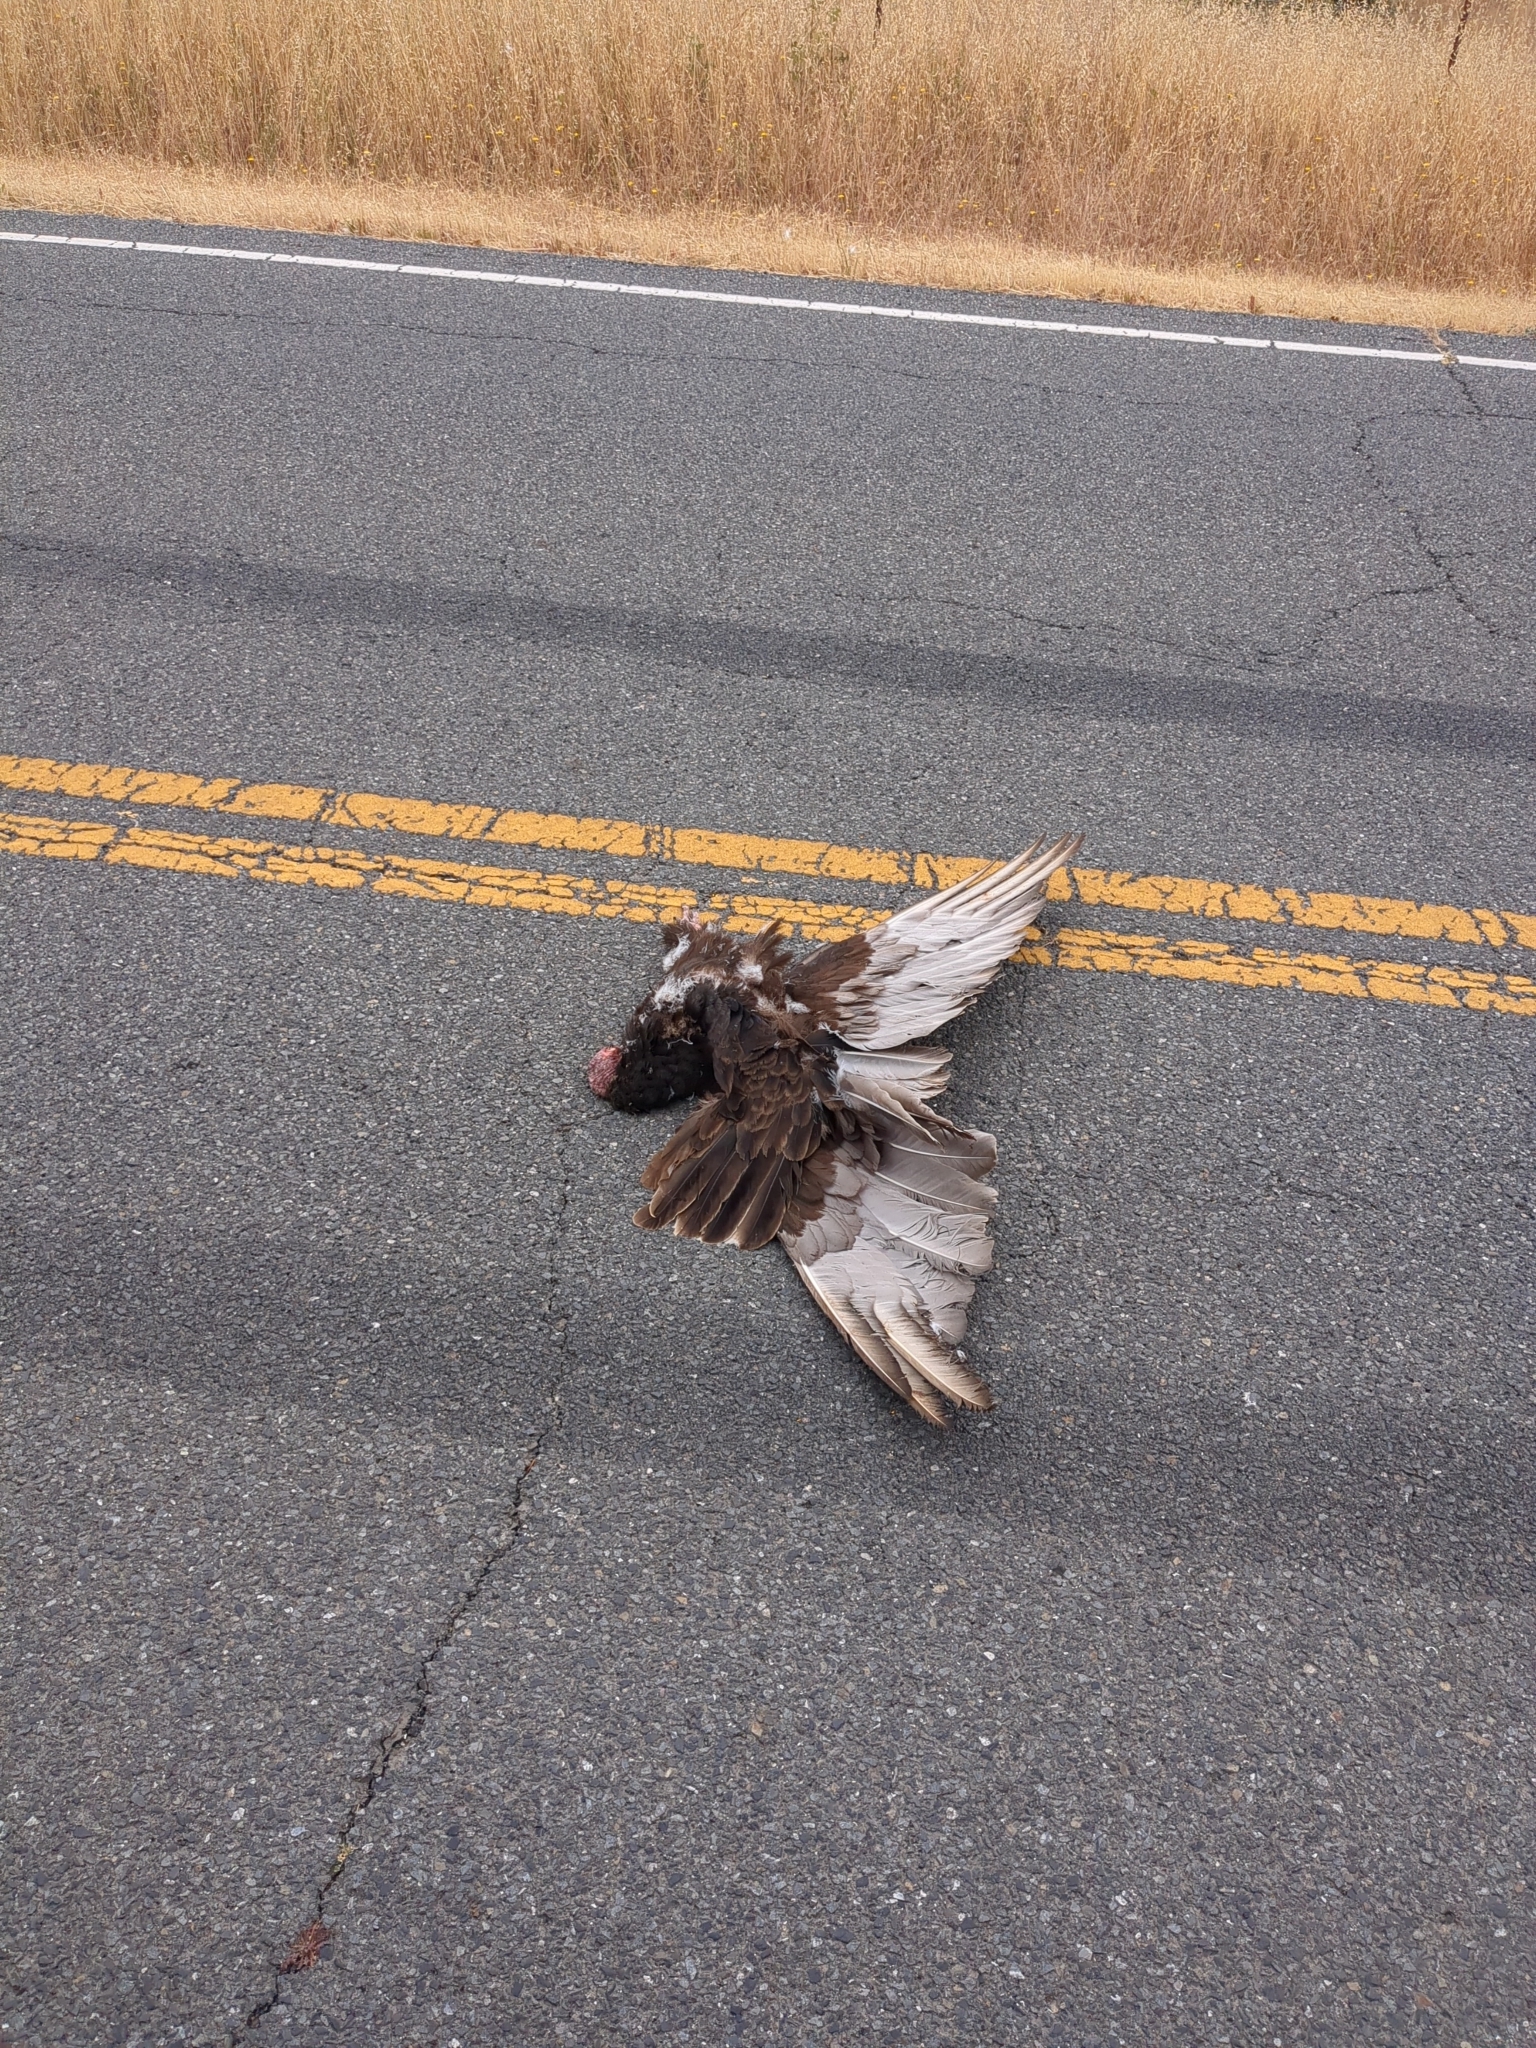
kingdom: Animalia
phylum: Chordata
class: Aves
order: Accipitriformes
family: Cathartidae
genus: Cathartes
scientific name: Cathartes aura
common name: Turkey vulture
